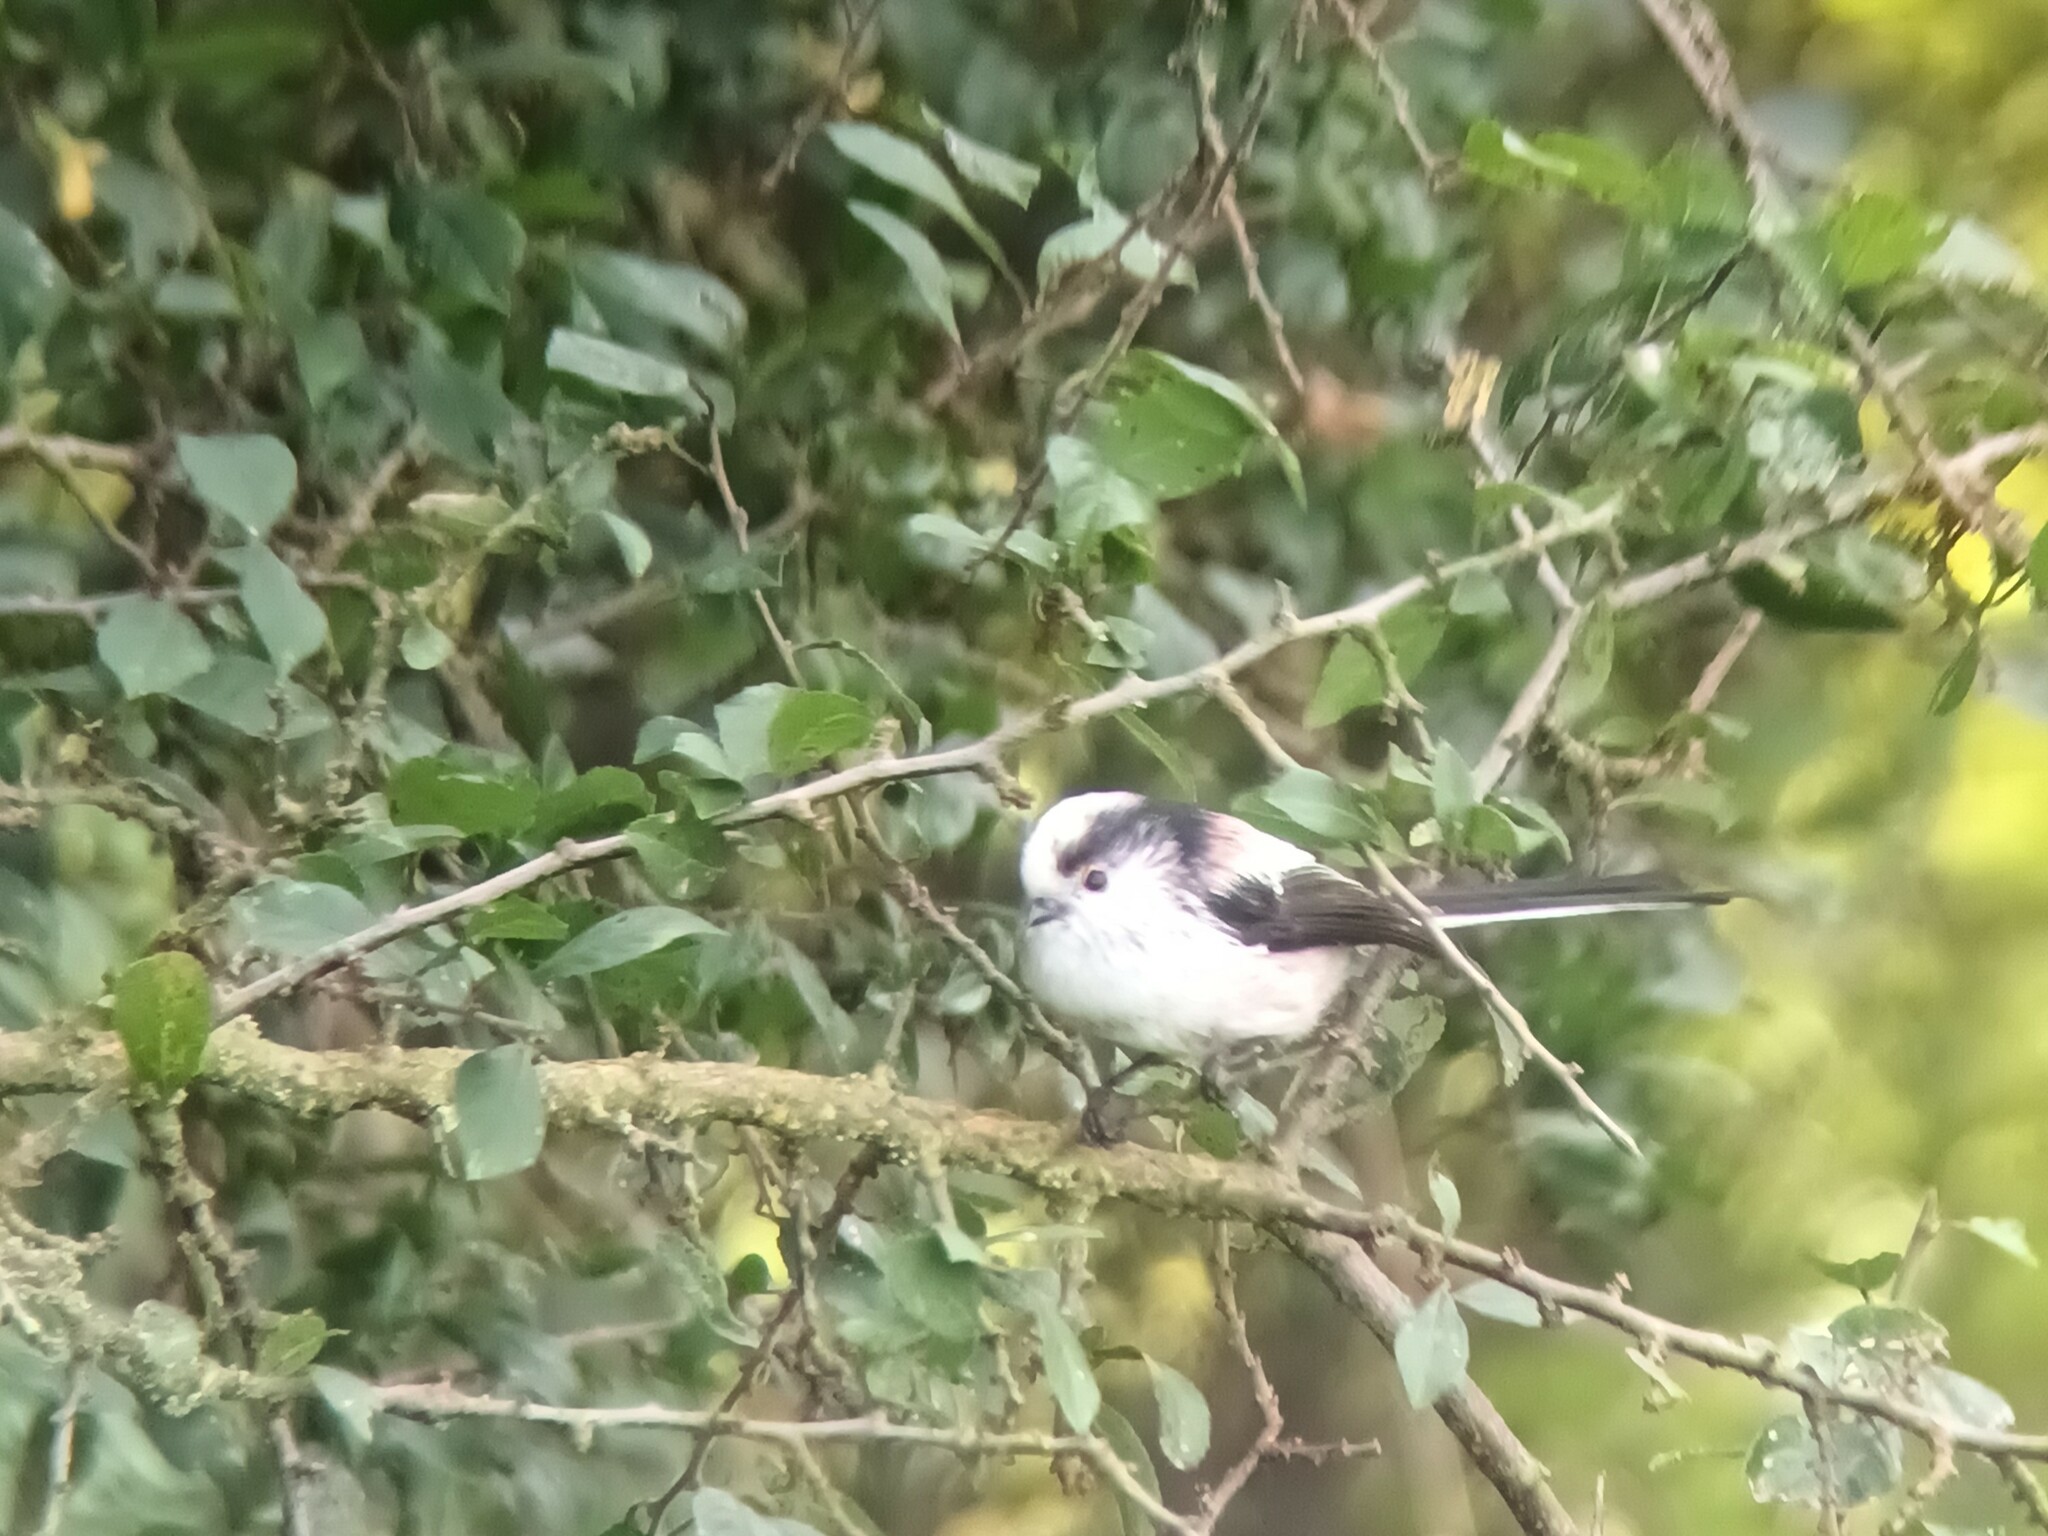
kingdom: Animalia
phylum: Chordata
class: Aves
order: Passeriformes
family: Aegithalidae
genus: Aegithalos
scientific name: Aegithalos caudatus
